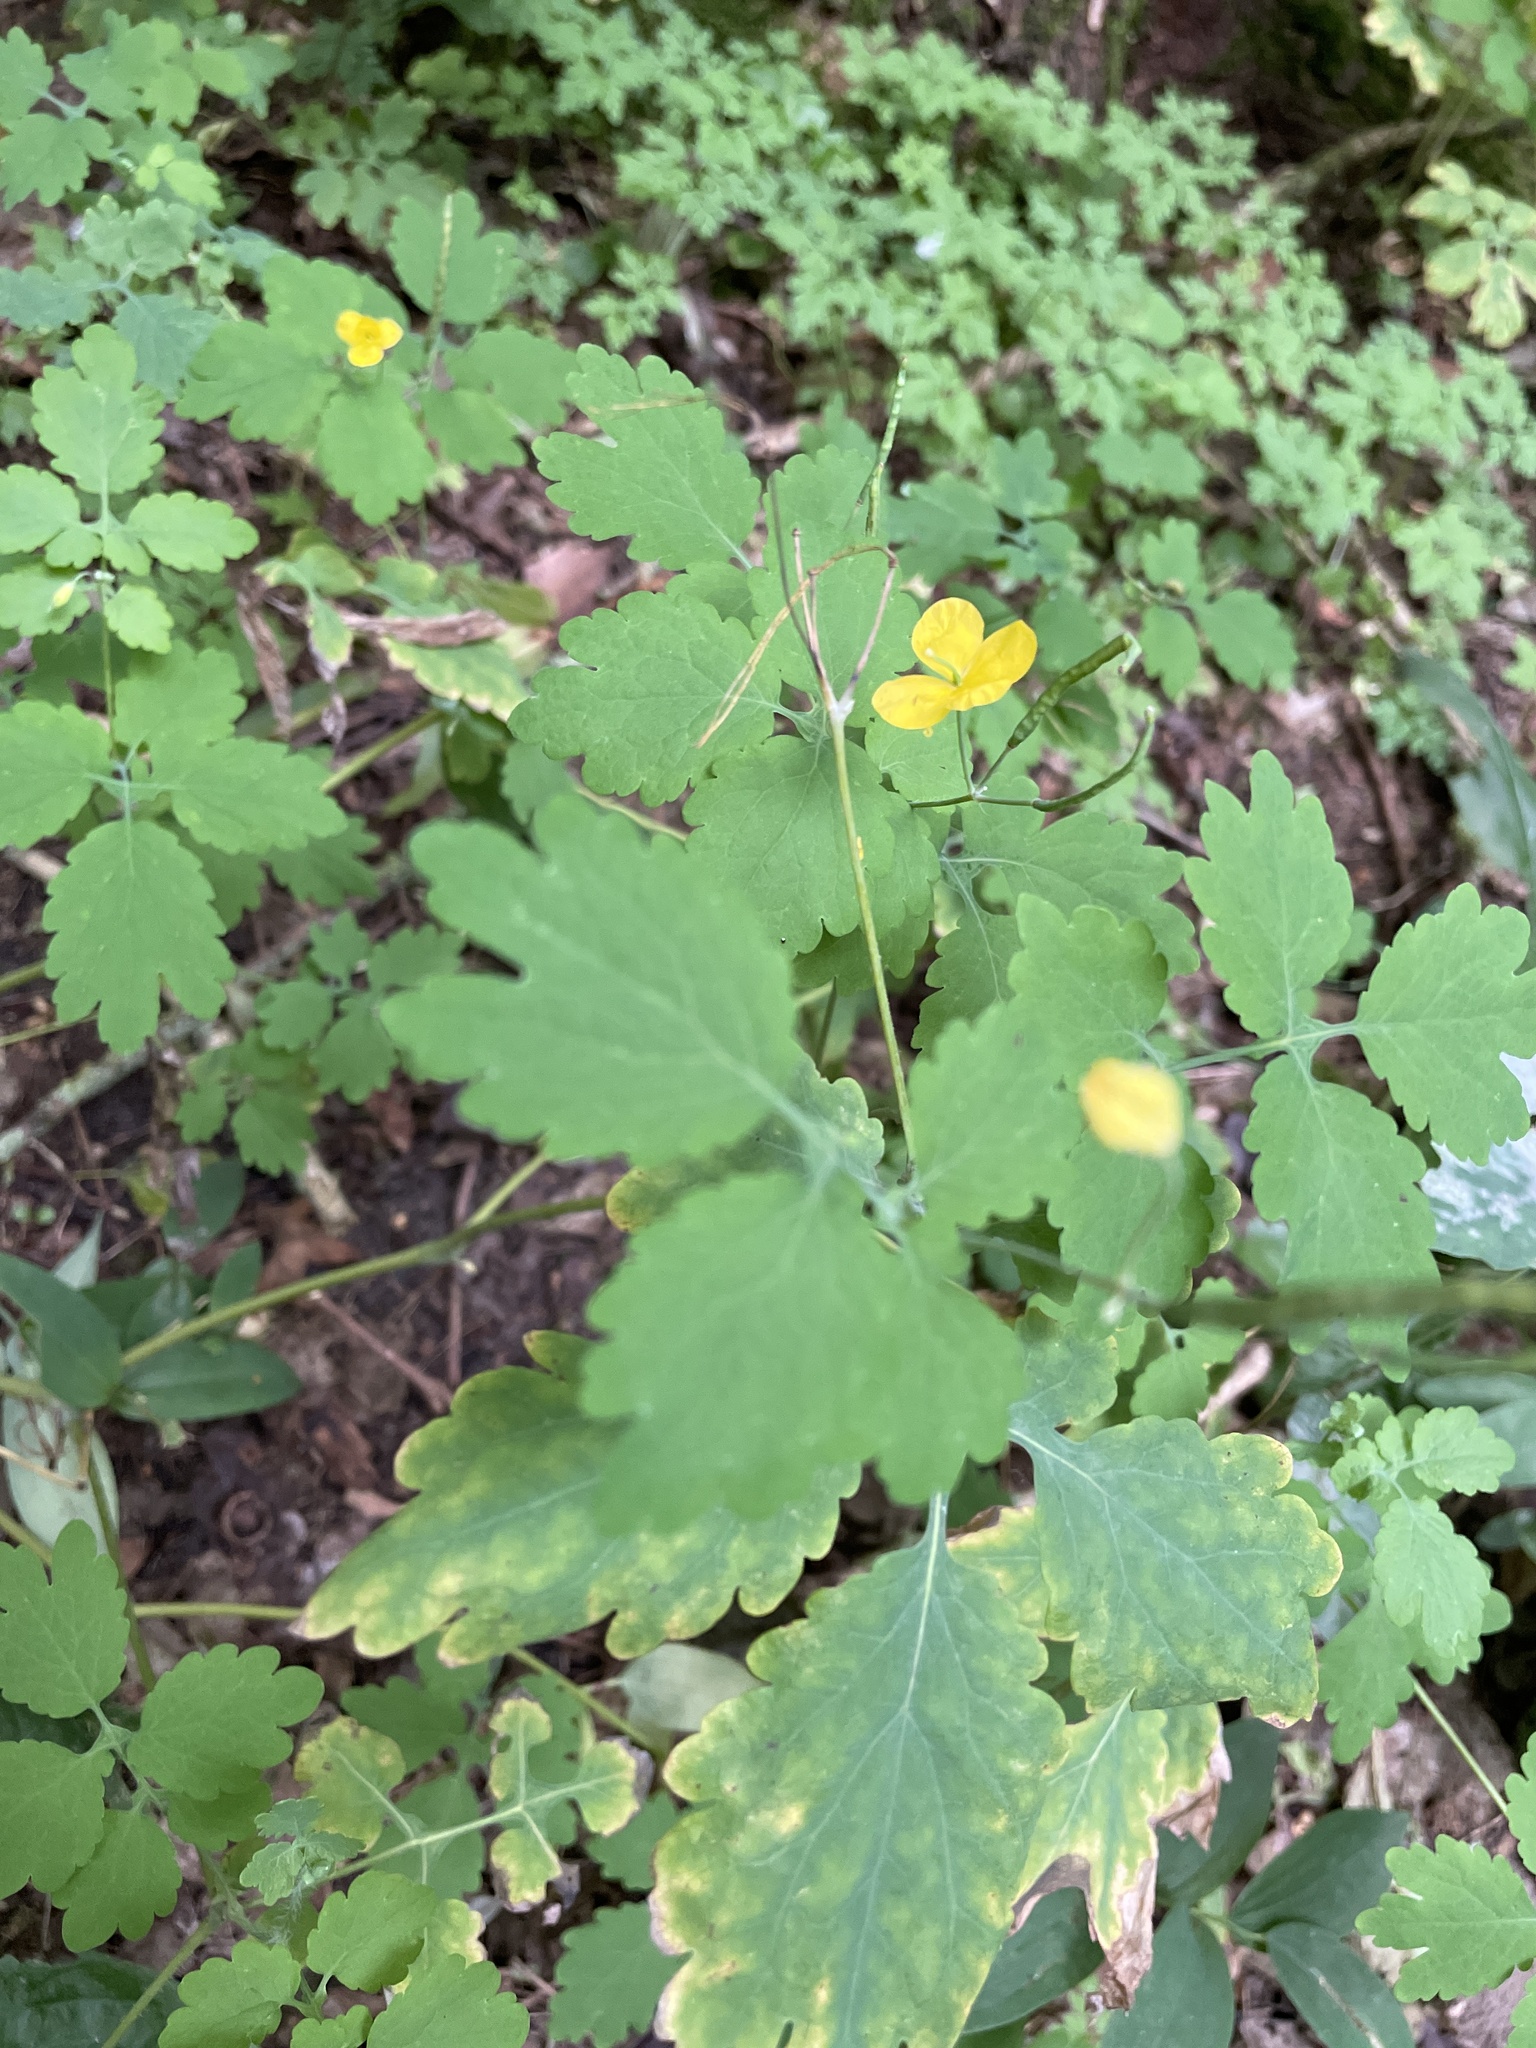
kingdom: Plantae
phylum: Tracheophyta
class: Magnoliopsida
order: Ranunculales
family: Papaveraceae
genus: Chelidonium
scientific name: Chelidonium majus
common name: Greater celandine
